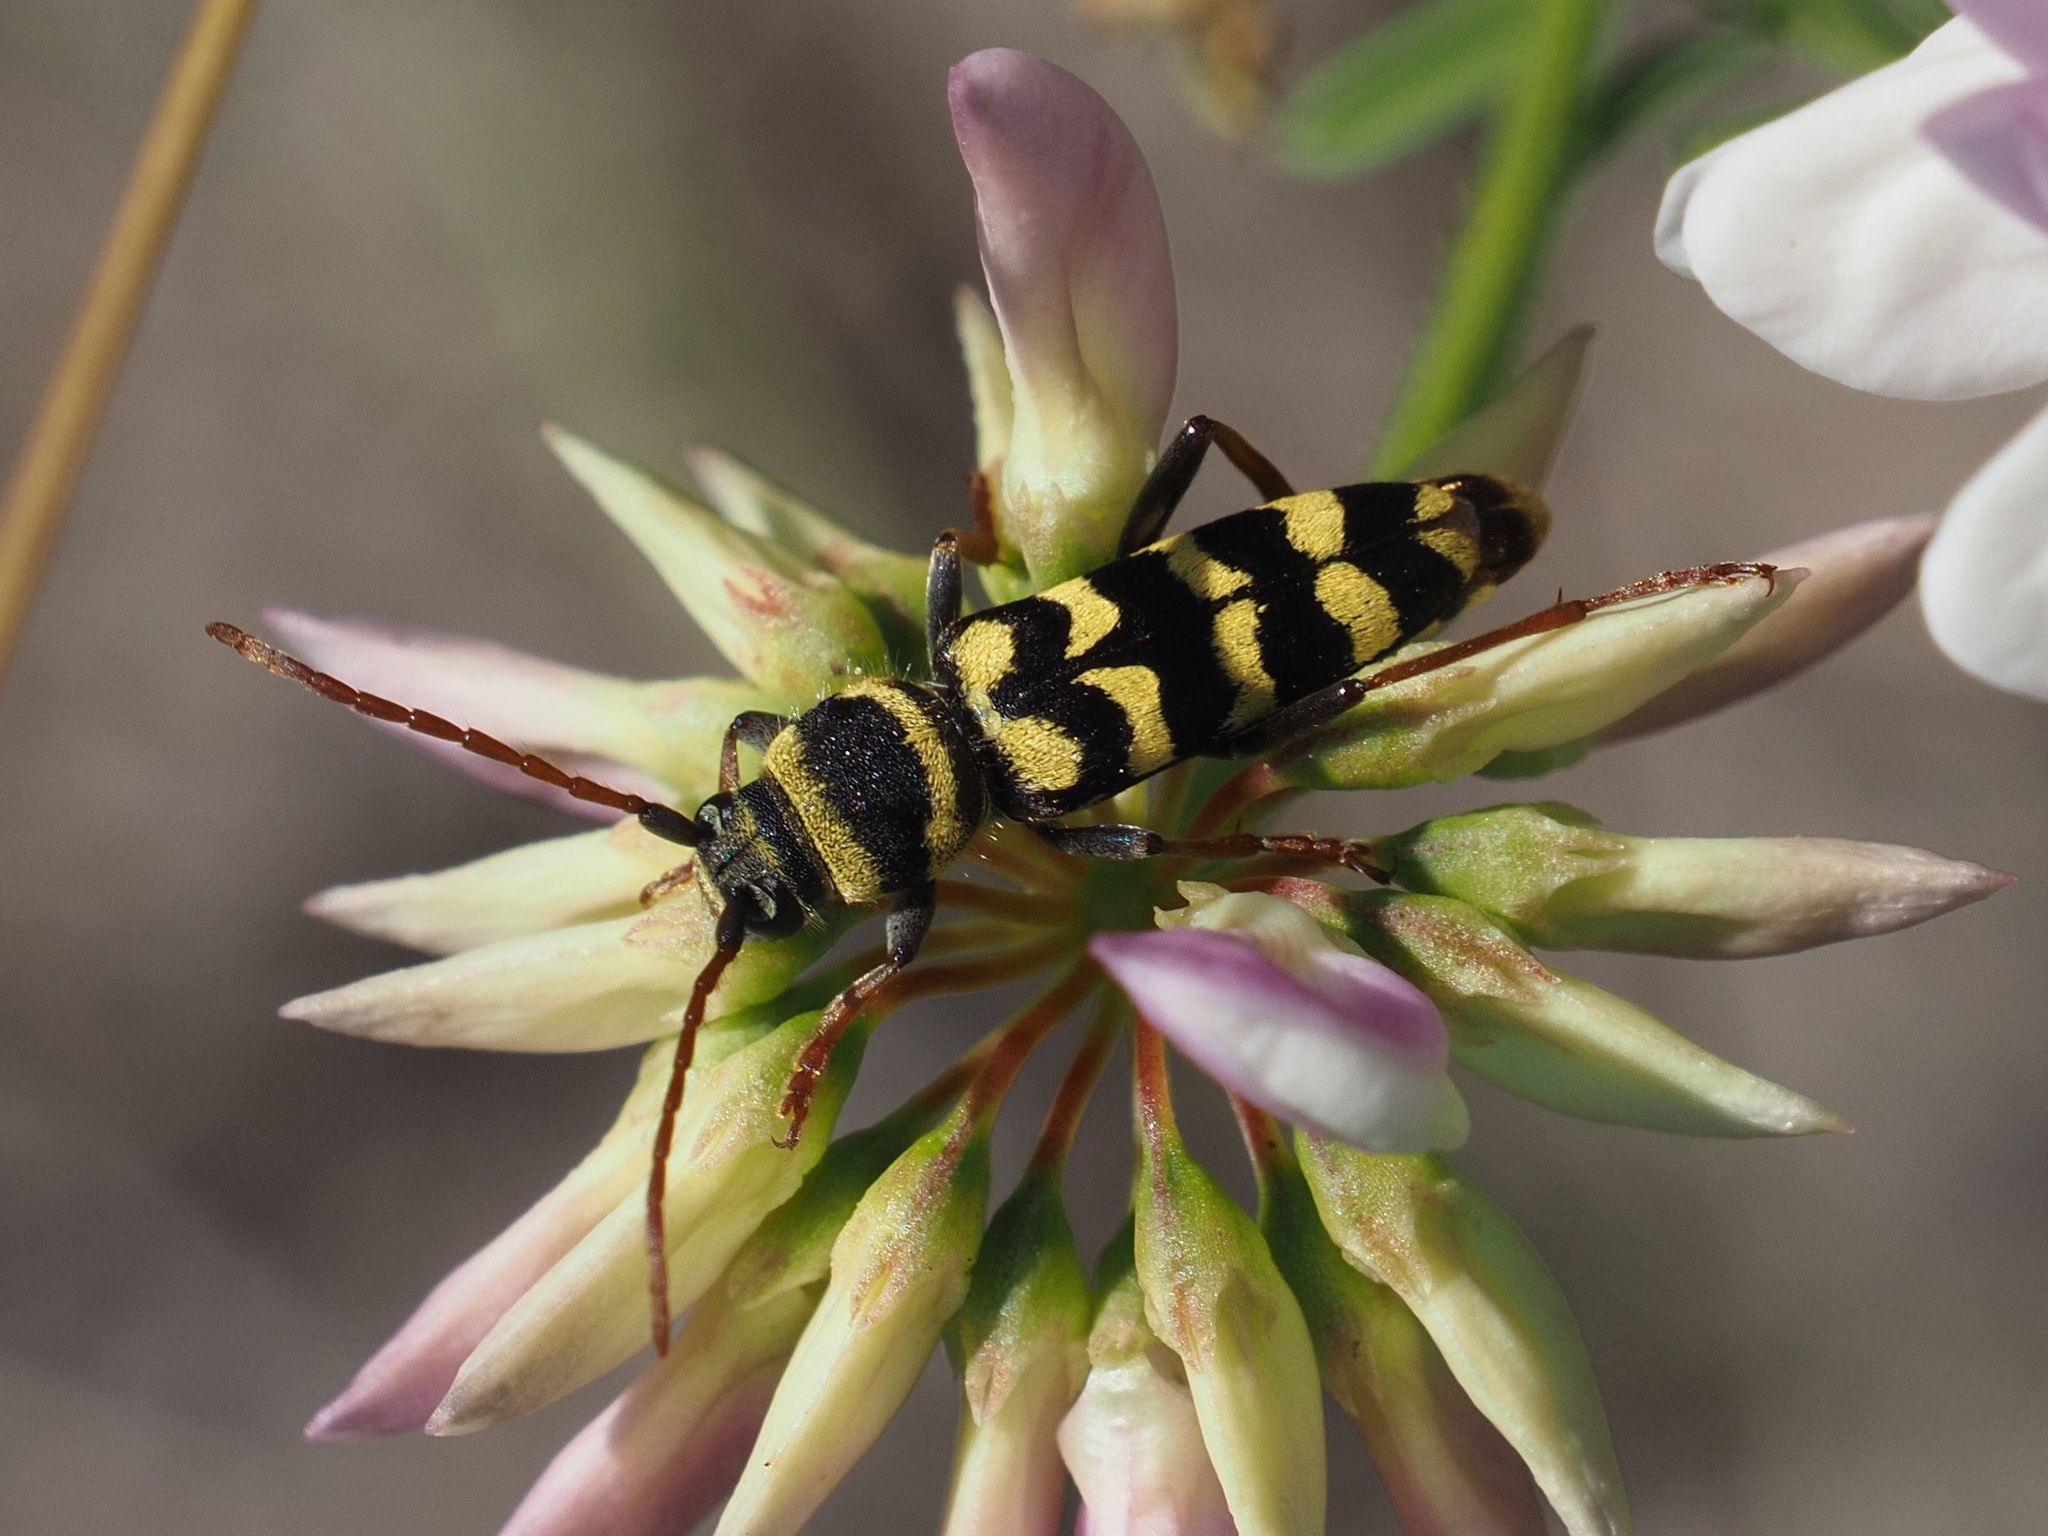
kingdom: Animalia
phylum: Arthropoda
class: Insecta
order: Coleoptera
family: Cerambycidae
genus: Plagionotus
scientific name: Plagionotus floralis
